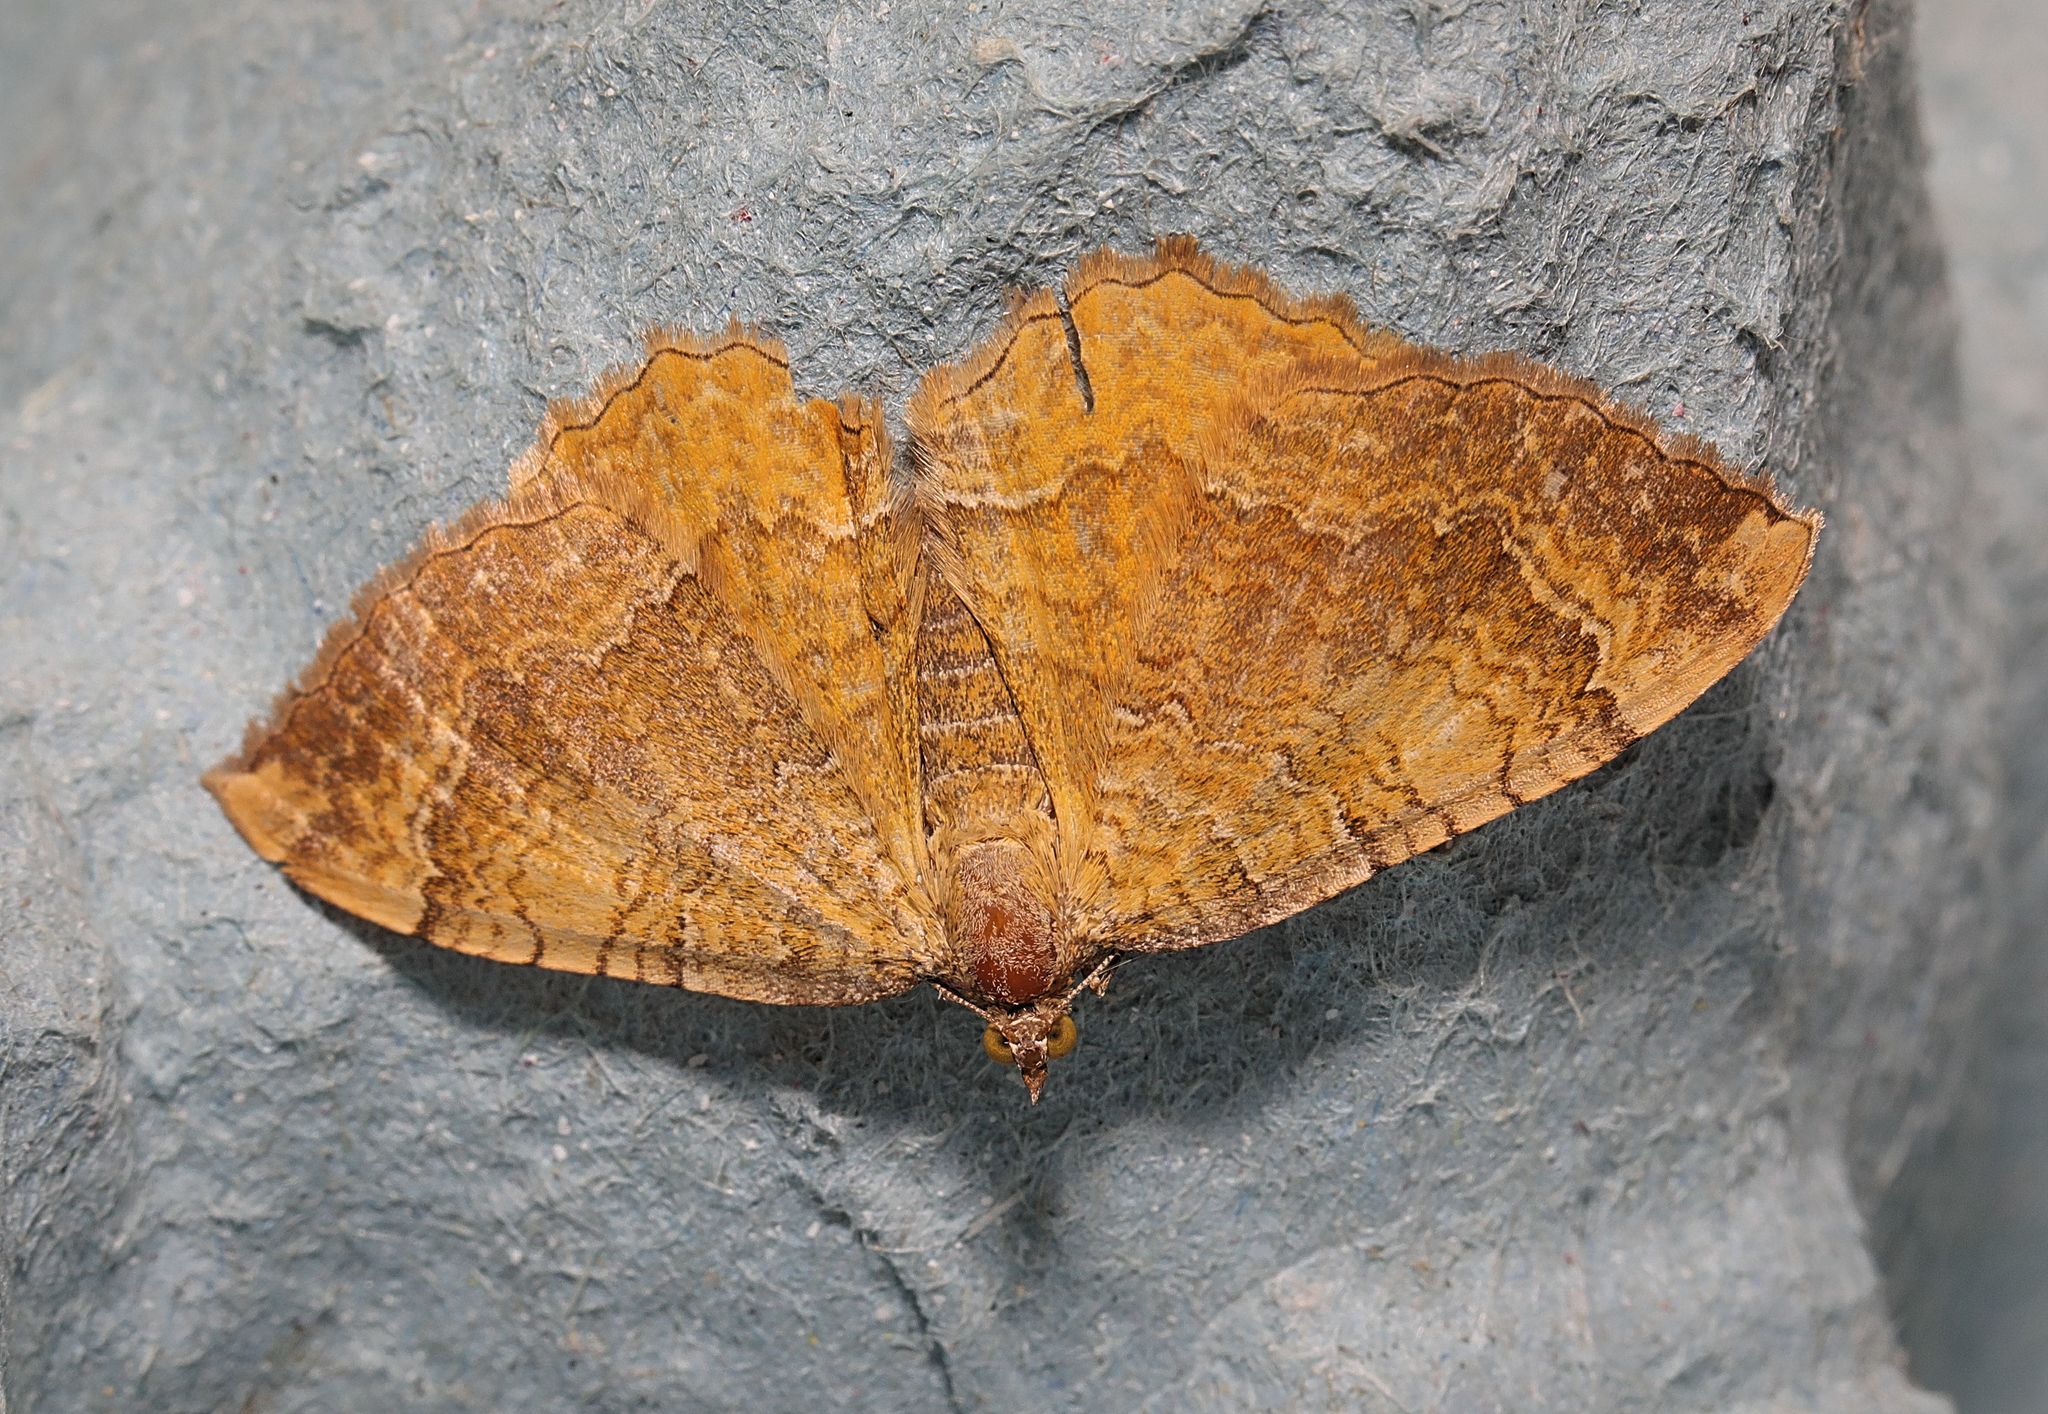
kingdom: Animalia
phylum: Arthropoda
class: Insecta
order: Lepidoptera
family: Geometridae
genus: Camptogramma
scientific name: Camptogramma bilineata
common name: Yellow shell
